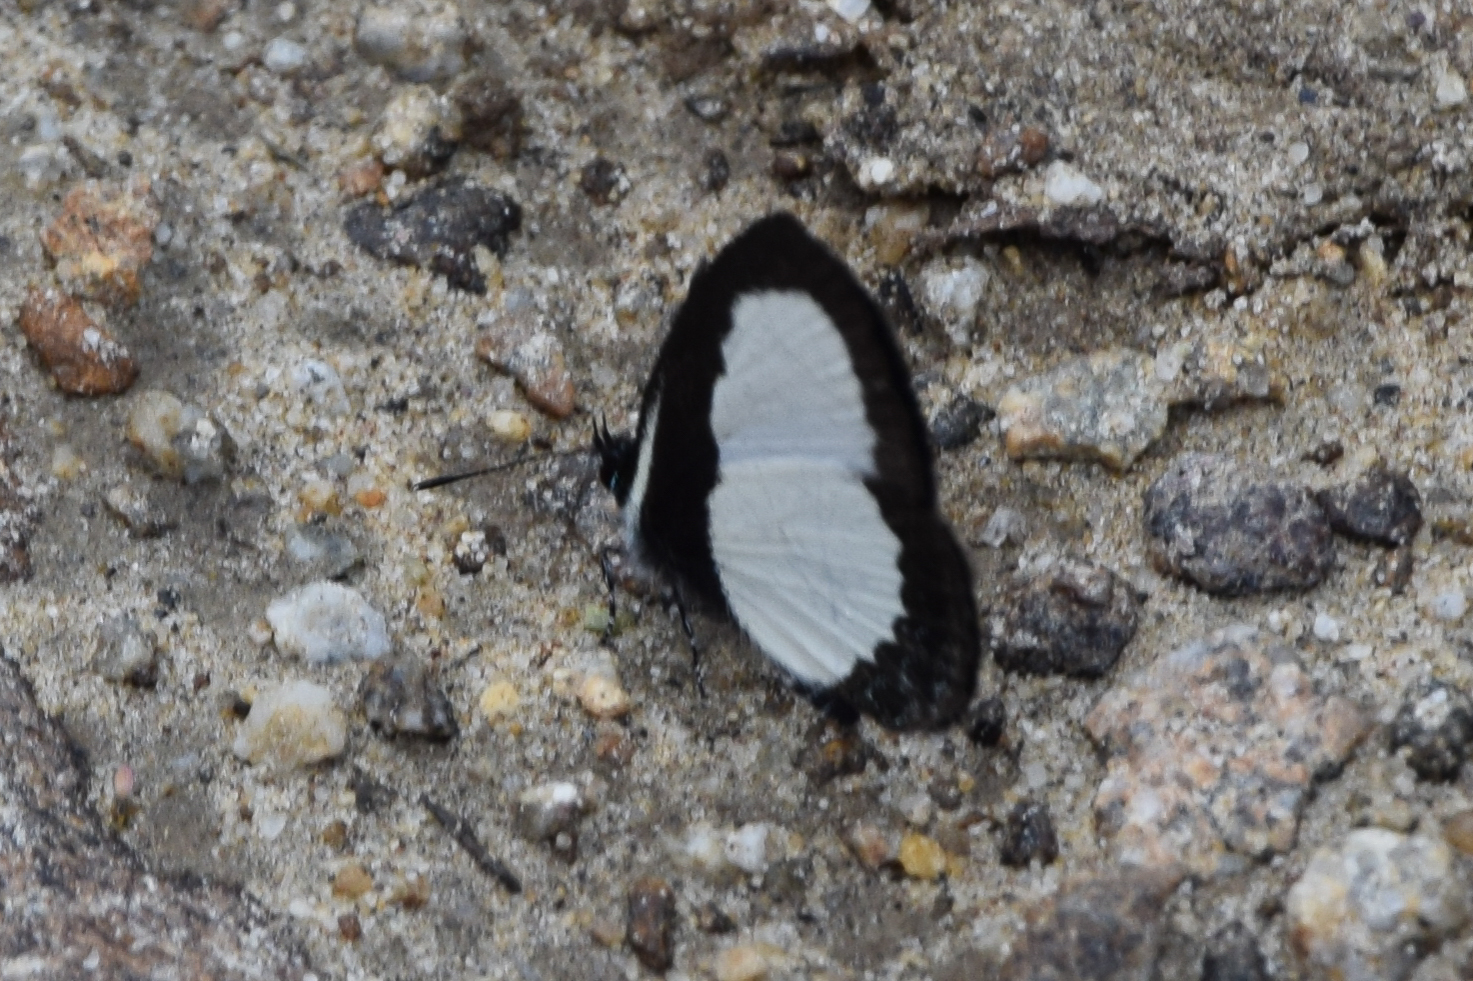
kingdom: Animalia
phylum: Arthropoda
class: Insecta
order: Lepidoptera
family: Lycaenidae
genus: Psychonotis
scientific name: Psychonotis
